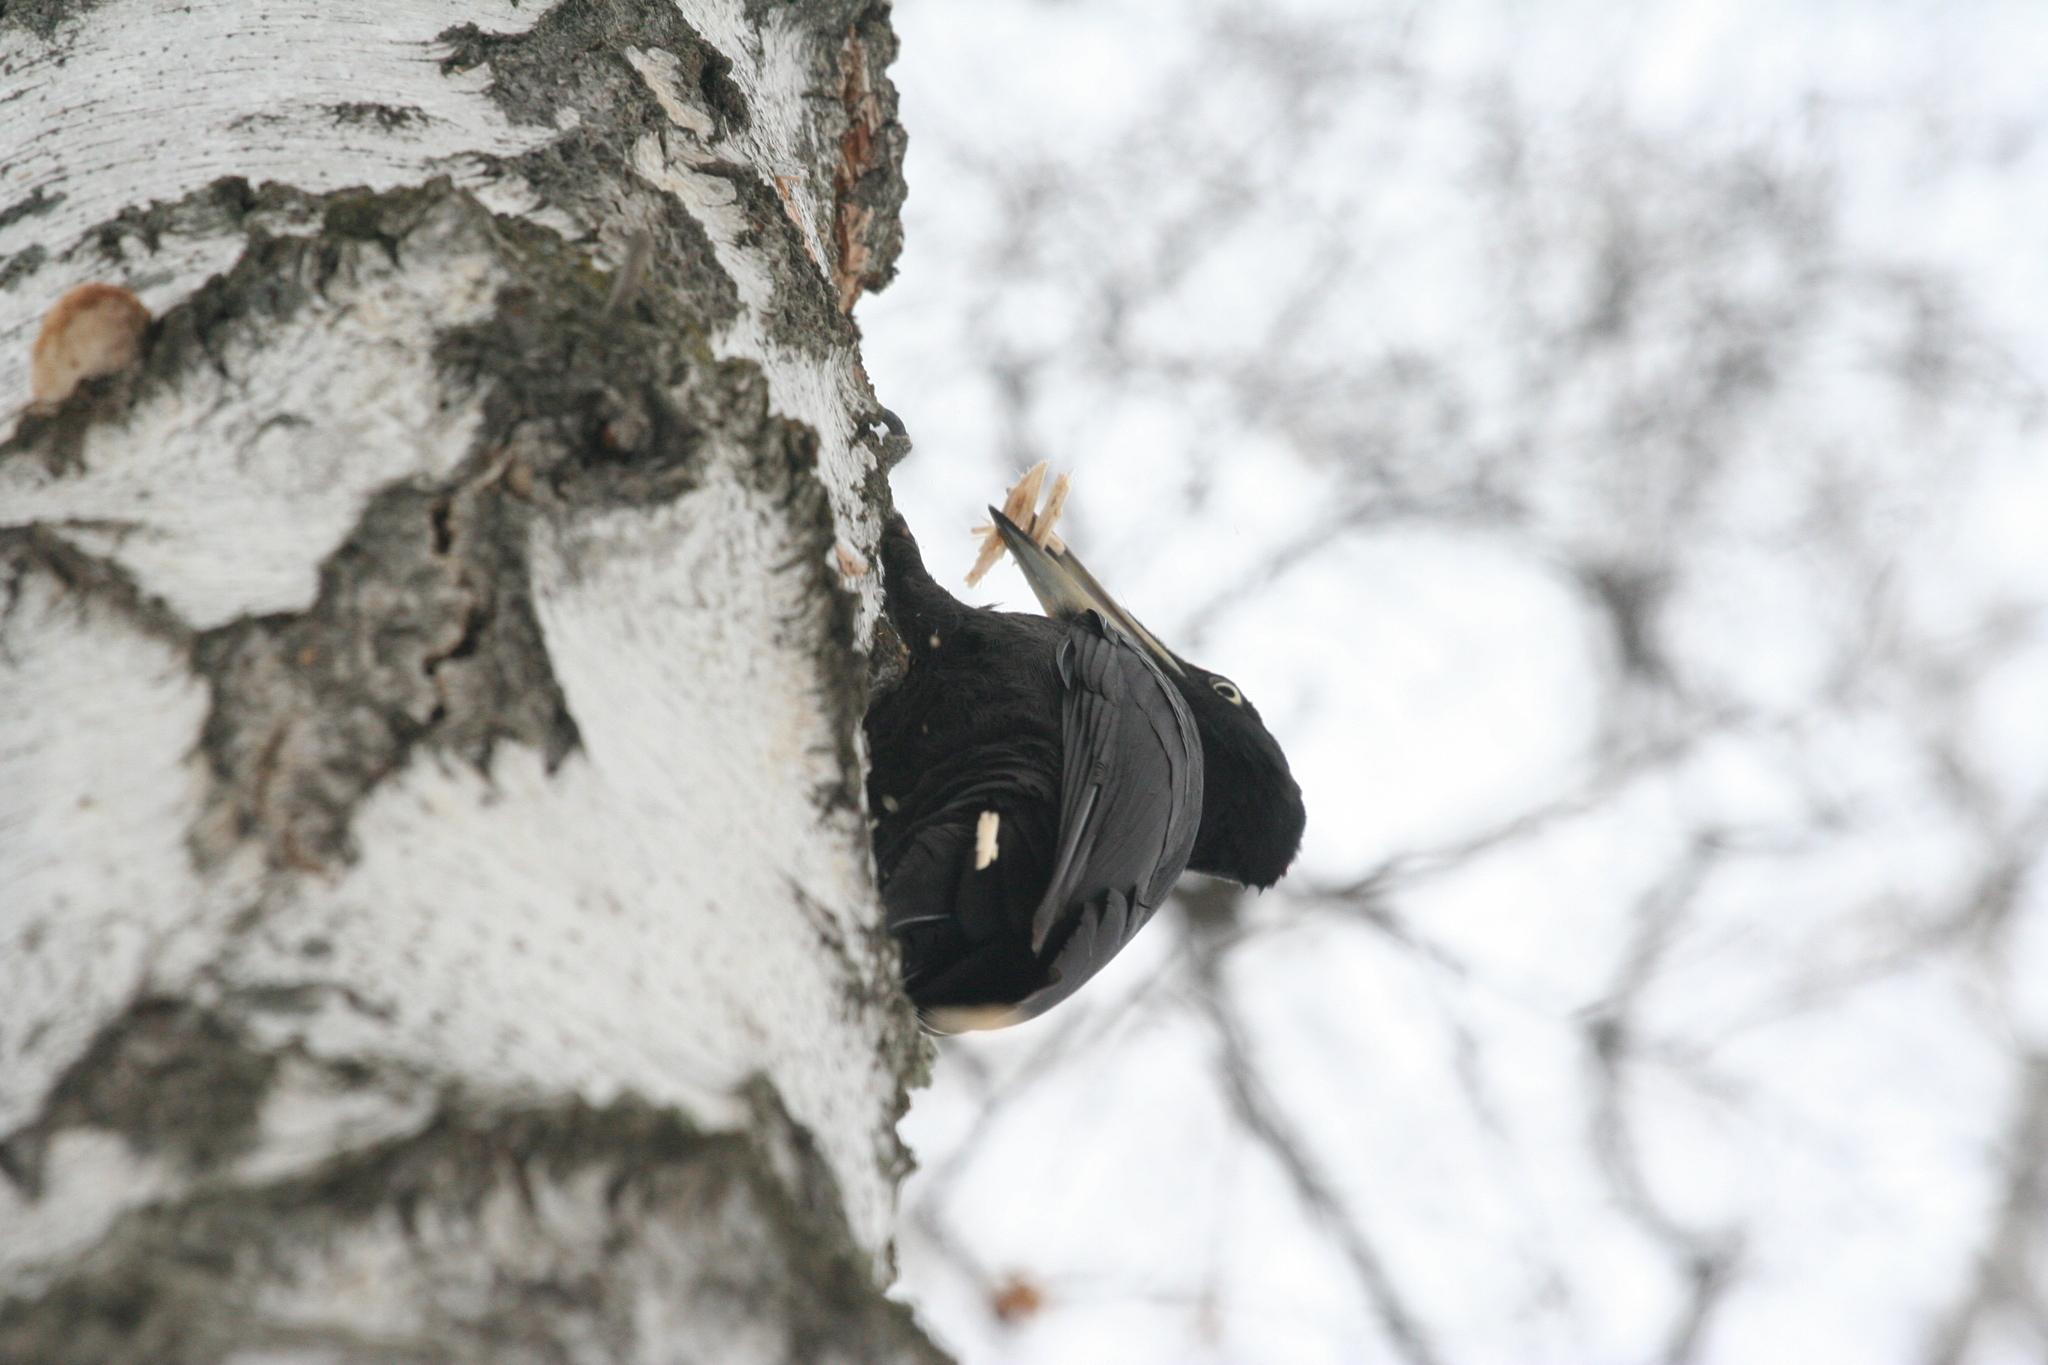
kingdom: Animalia
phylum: Chordata
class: Aves
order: Piciformes
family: Picidae
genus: Dryocopus
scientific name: Dryocopus martius
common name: Black woodpecker
